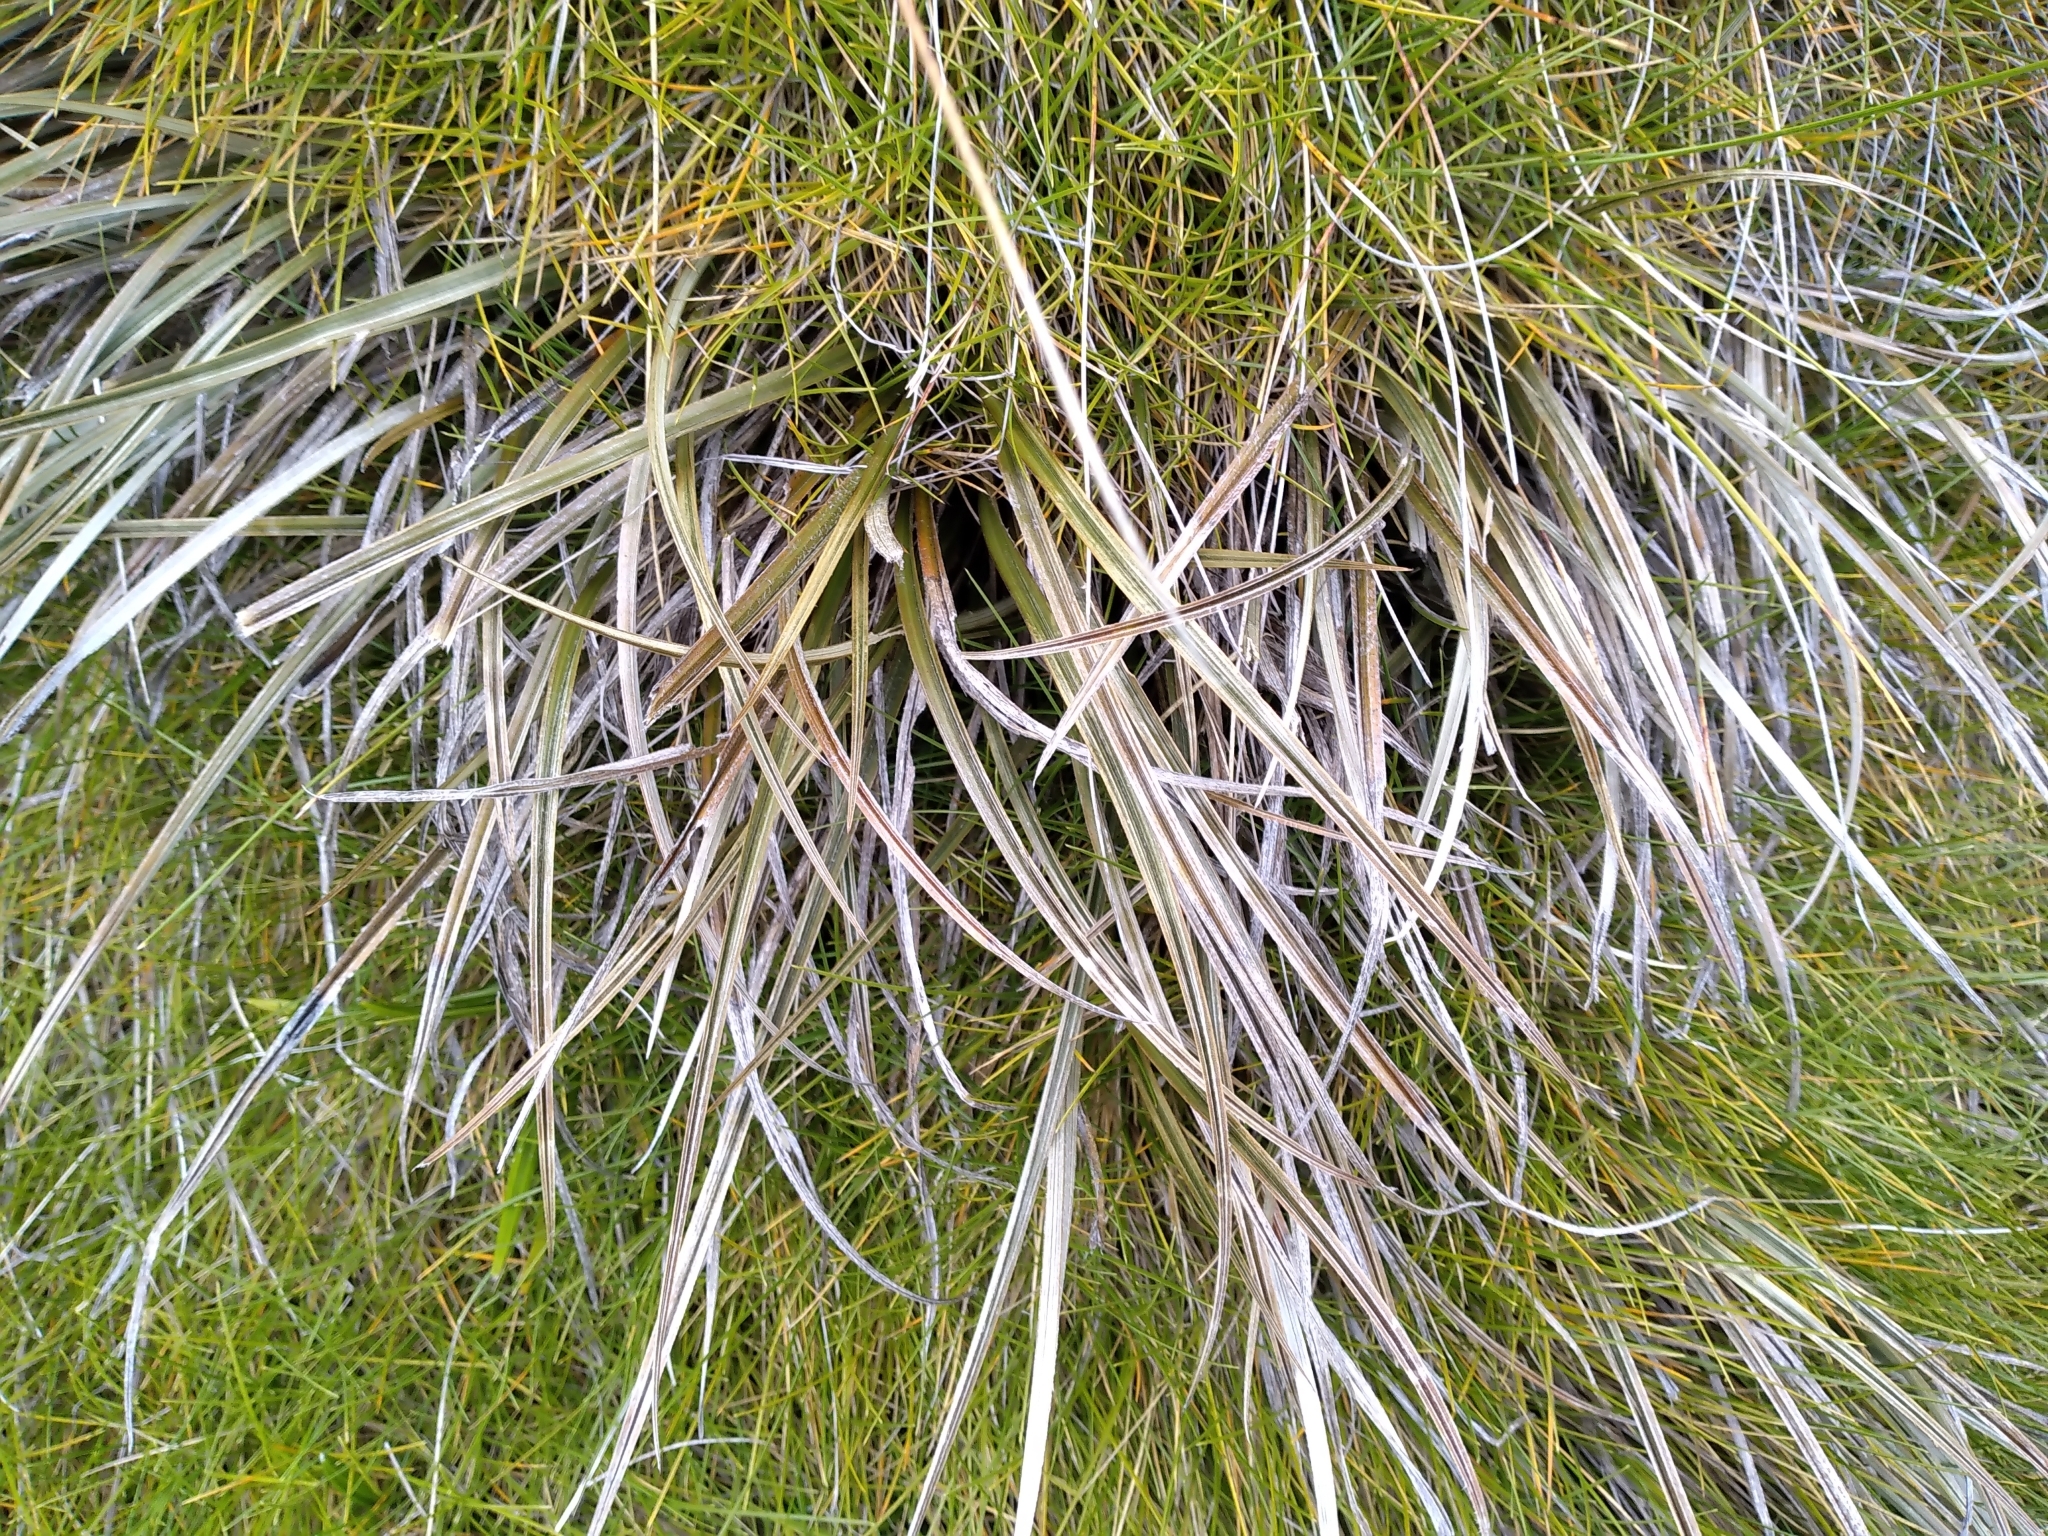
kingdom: Plantae
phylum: Tracheophyta
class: Liliopsida
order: Asparagales
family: Asteliaceae
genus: Astelia
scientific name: Astelia graminea
